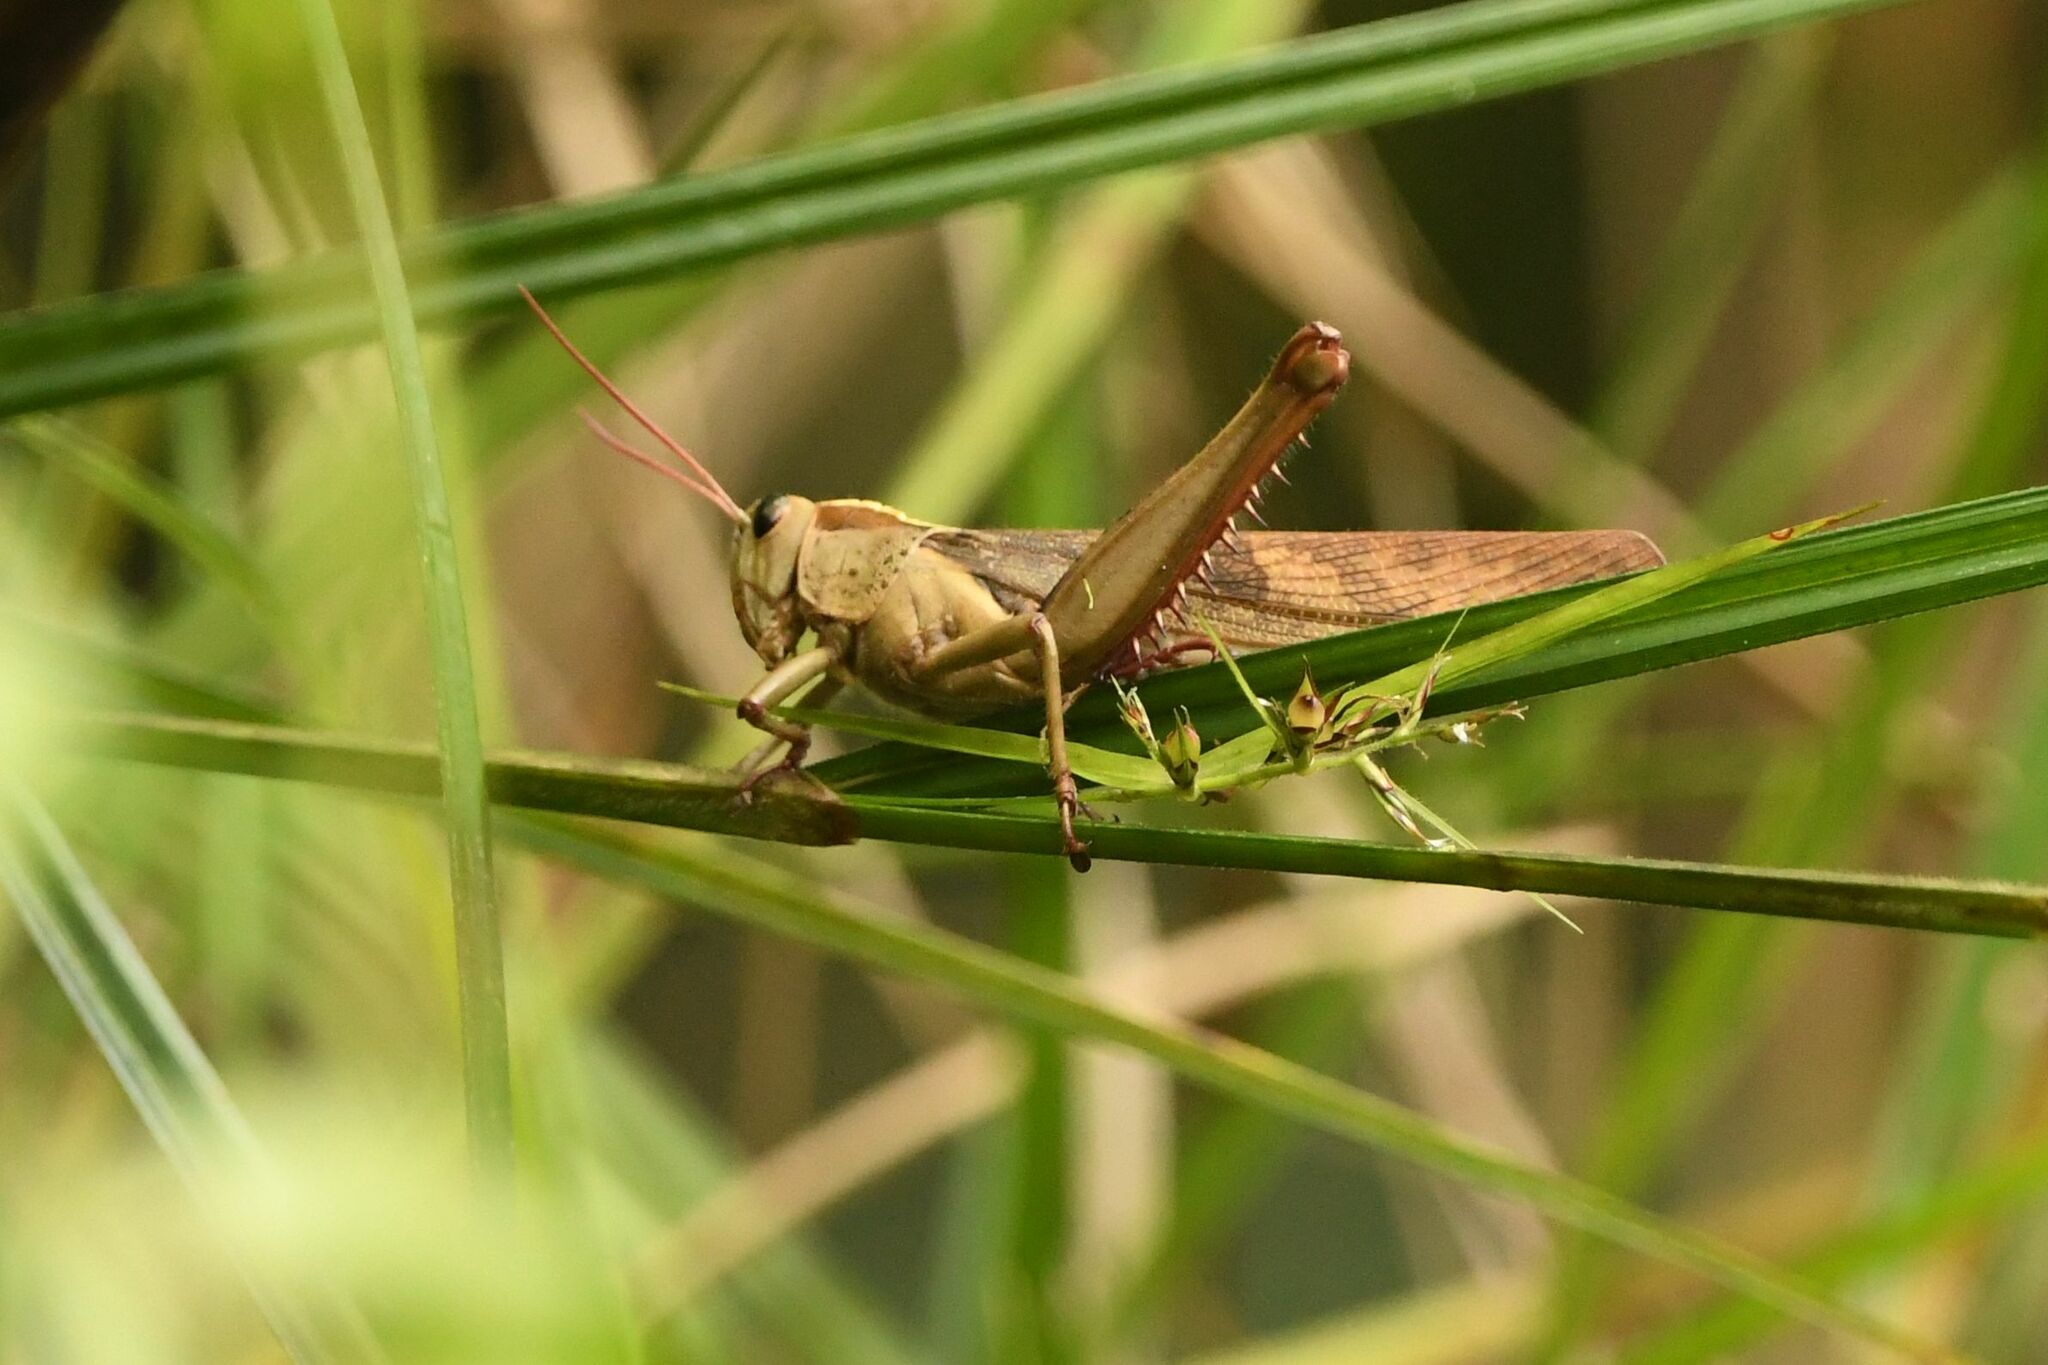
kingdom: Animalia
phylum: Arthropoda
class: Insecta
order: Orthoptera
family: Acrididae
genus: Acanthacris
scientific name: Acanthacris ruficornis
